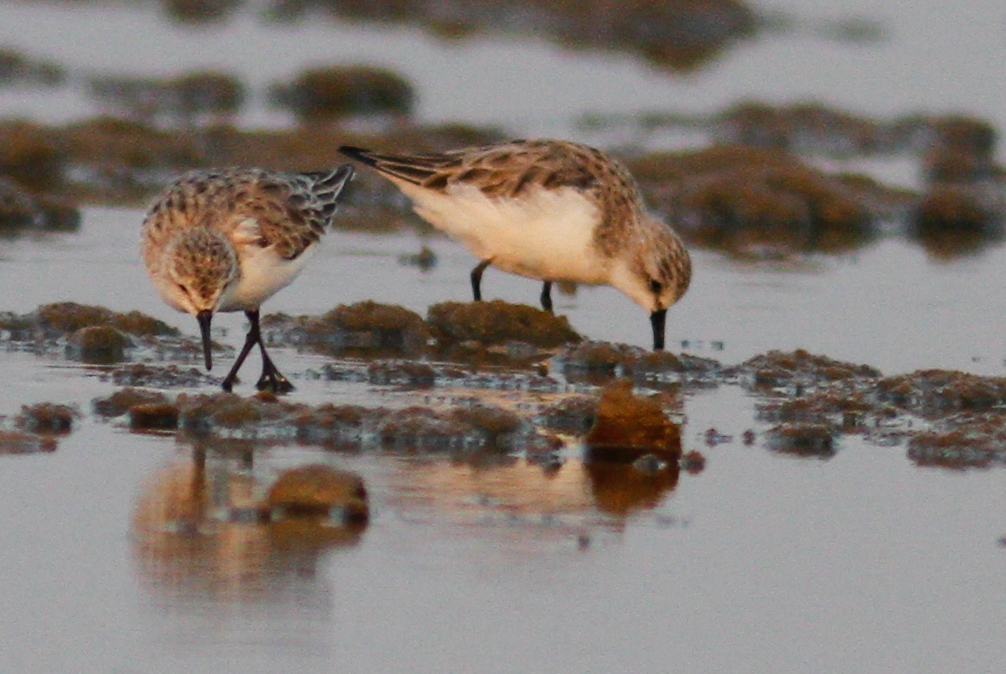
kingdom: Animalia
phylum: Chordata
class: Aves
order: Charadriiformes
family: Scolopacidae
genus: Calidris
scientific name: Calidris ruficollis
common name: Red-necked stint
